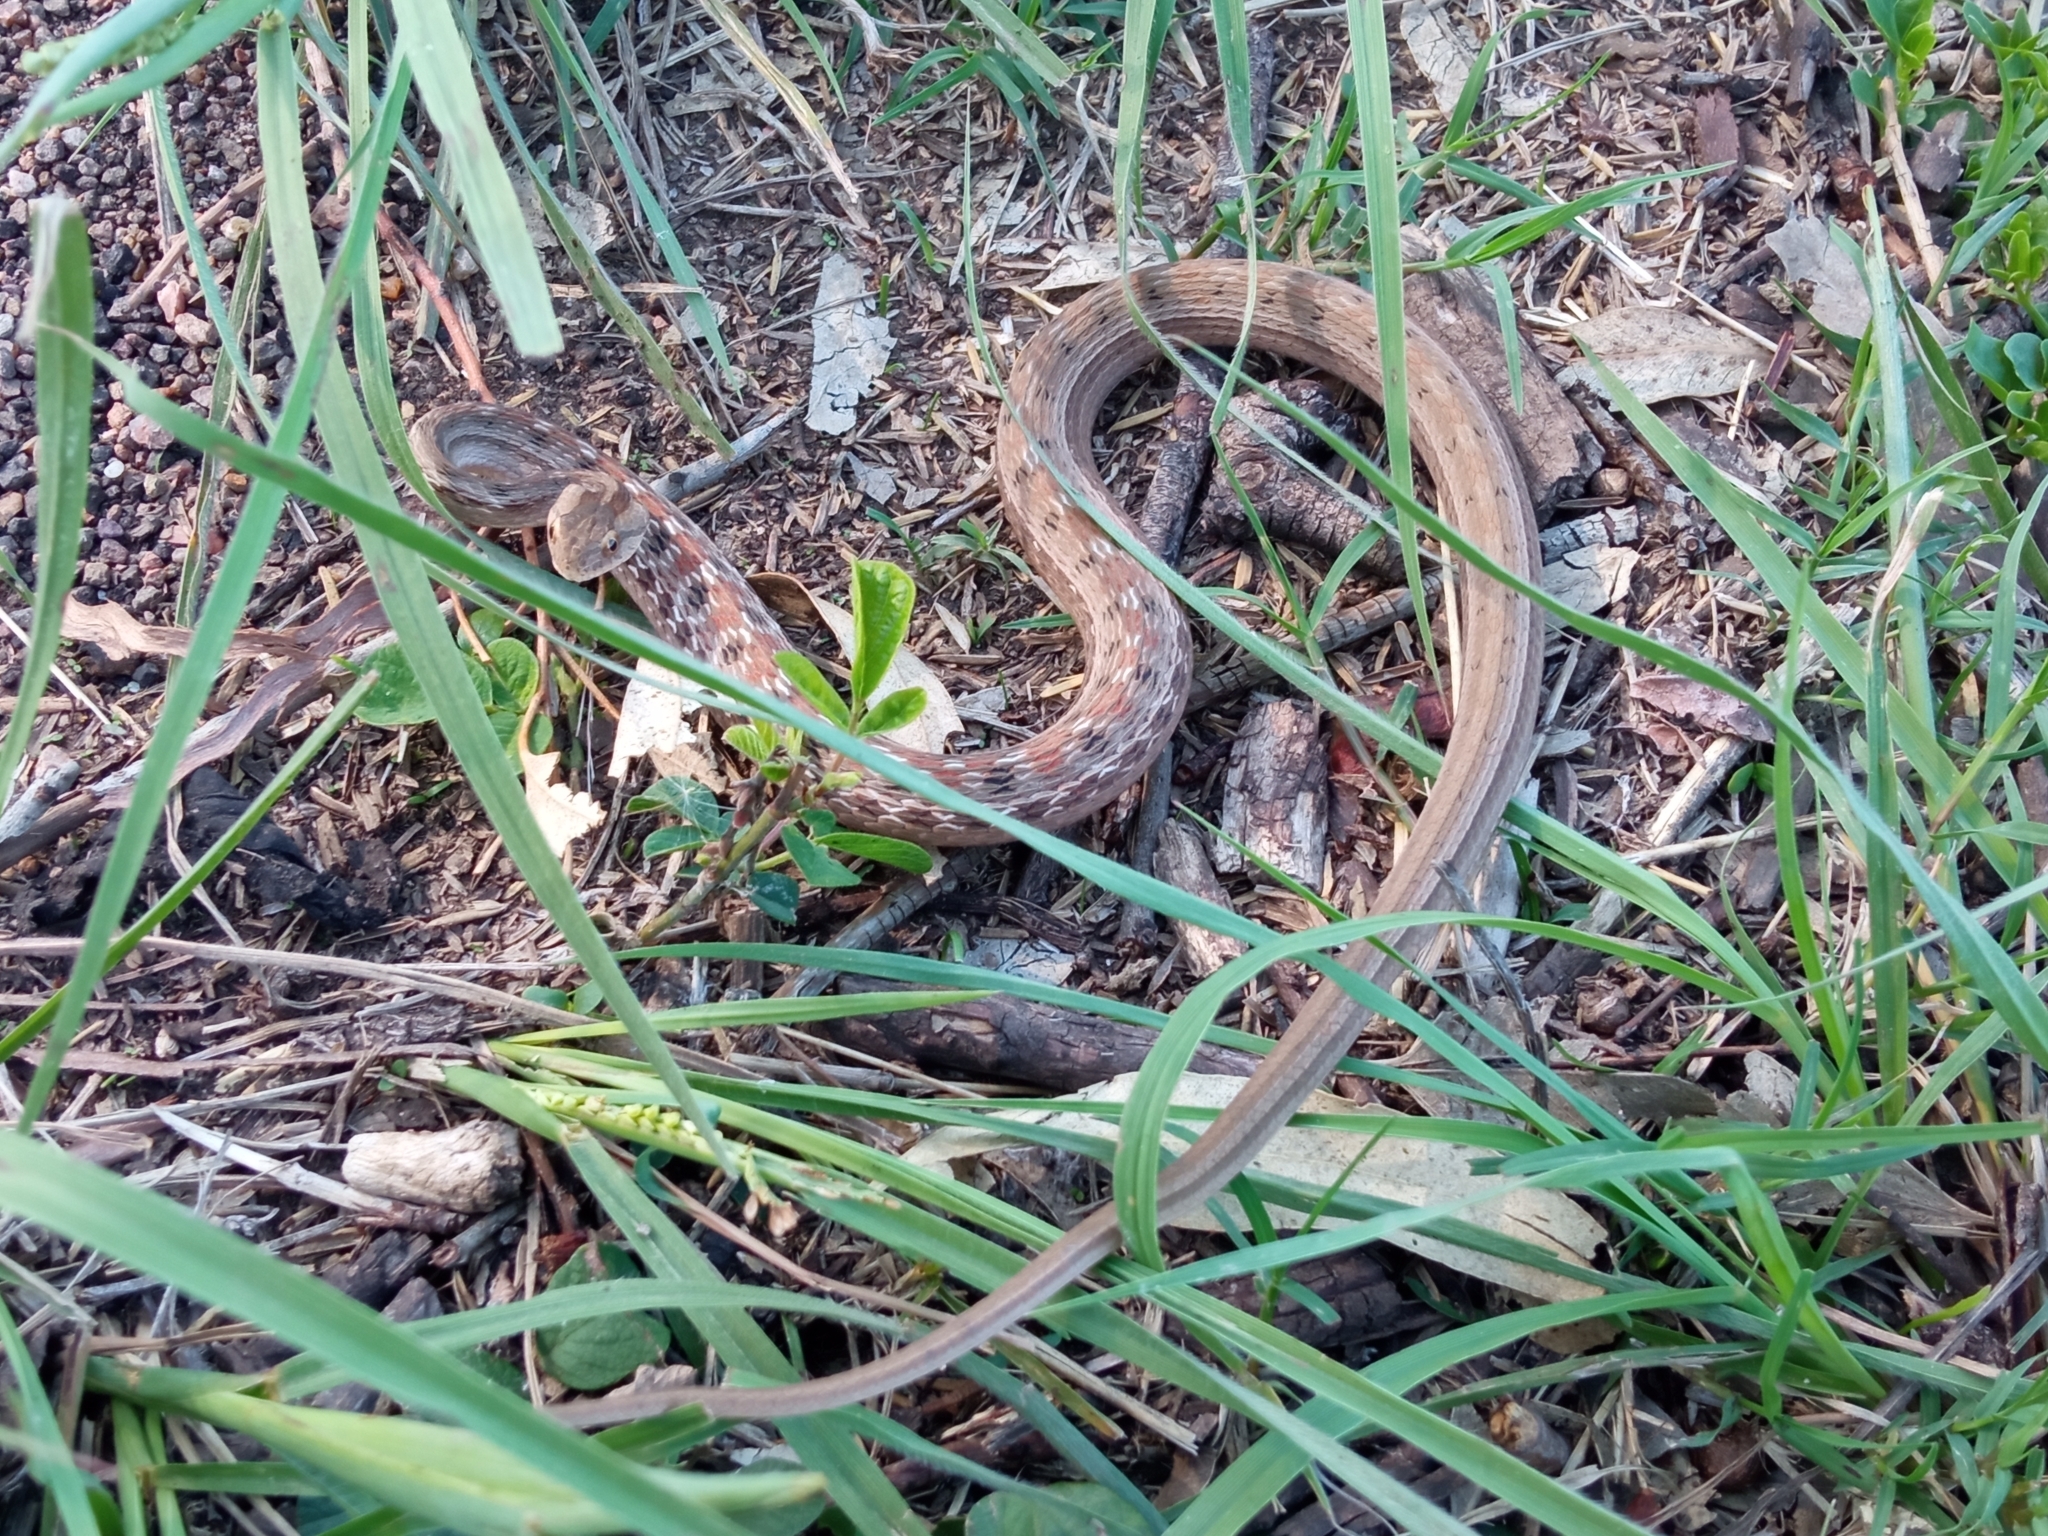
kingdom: Animalia
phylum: Chordata
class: Squamata
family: Colubridae
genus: Dryophylax
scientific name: Dryophylax
